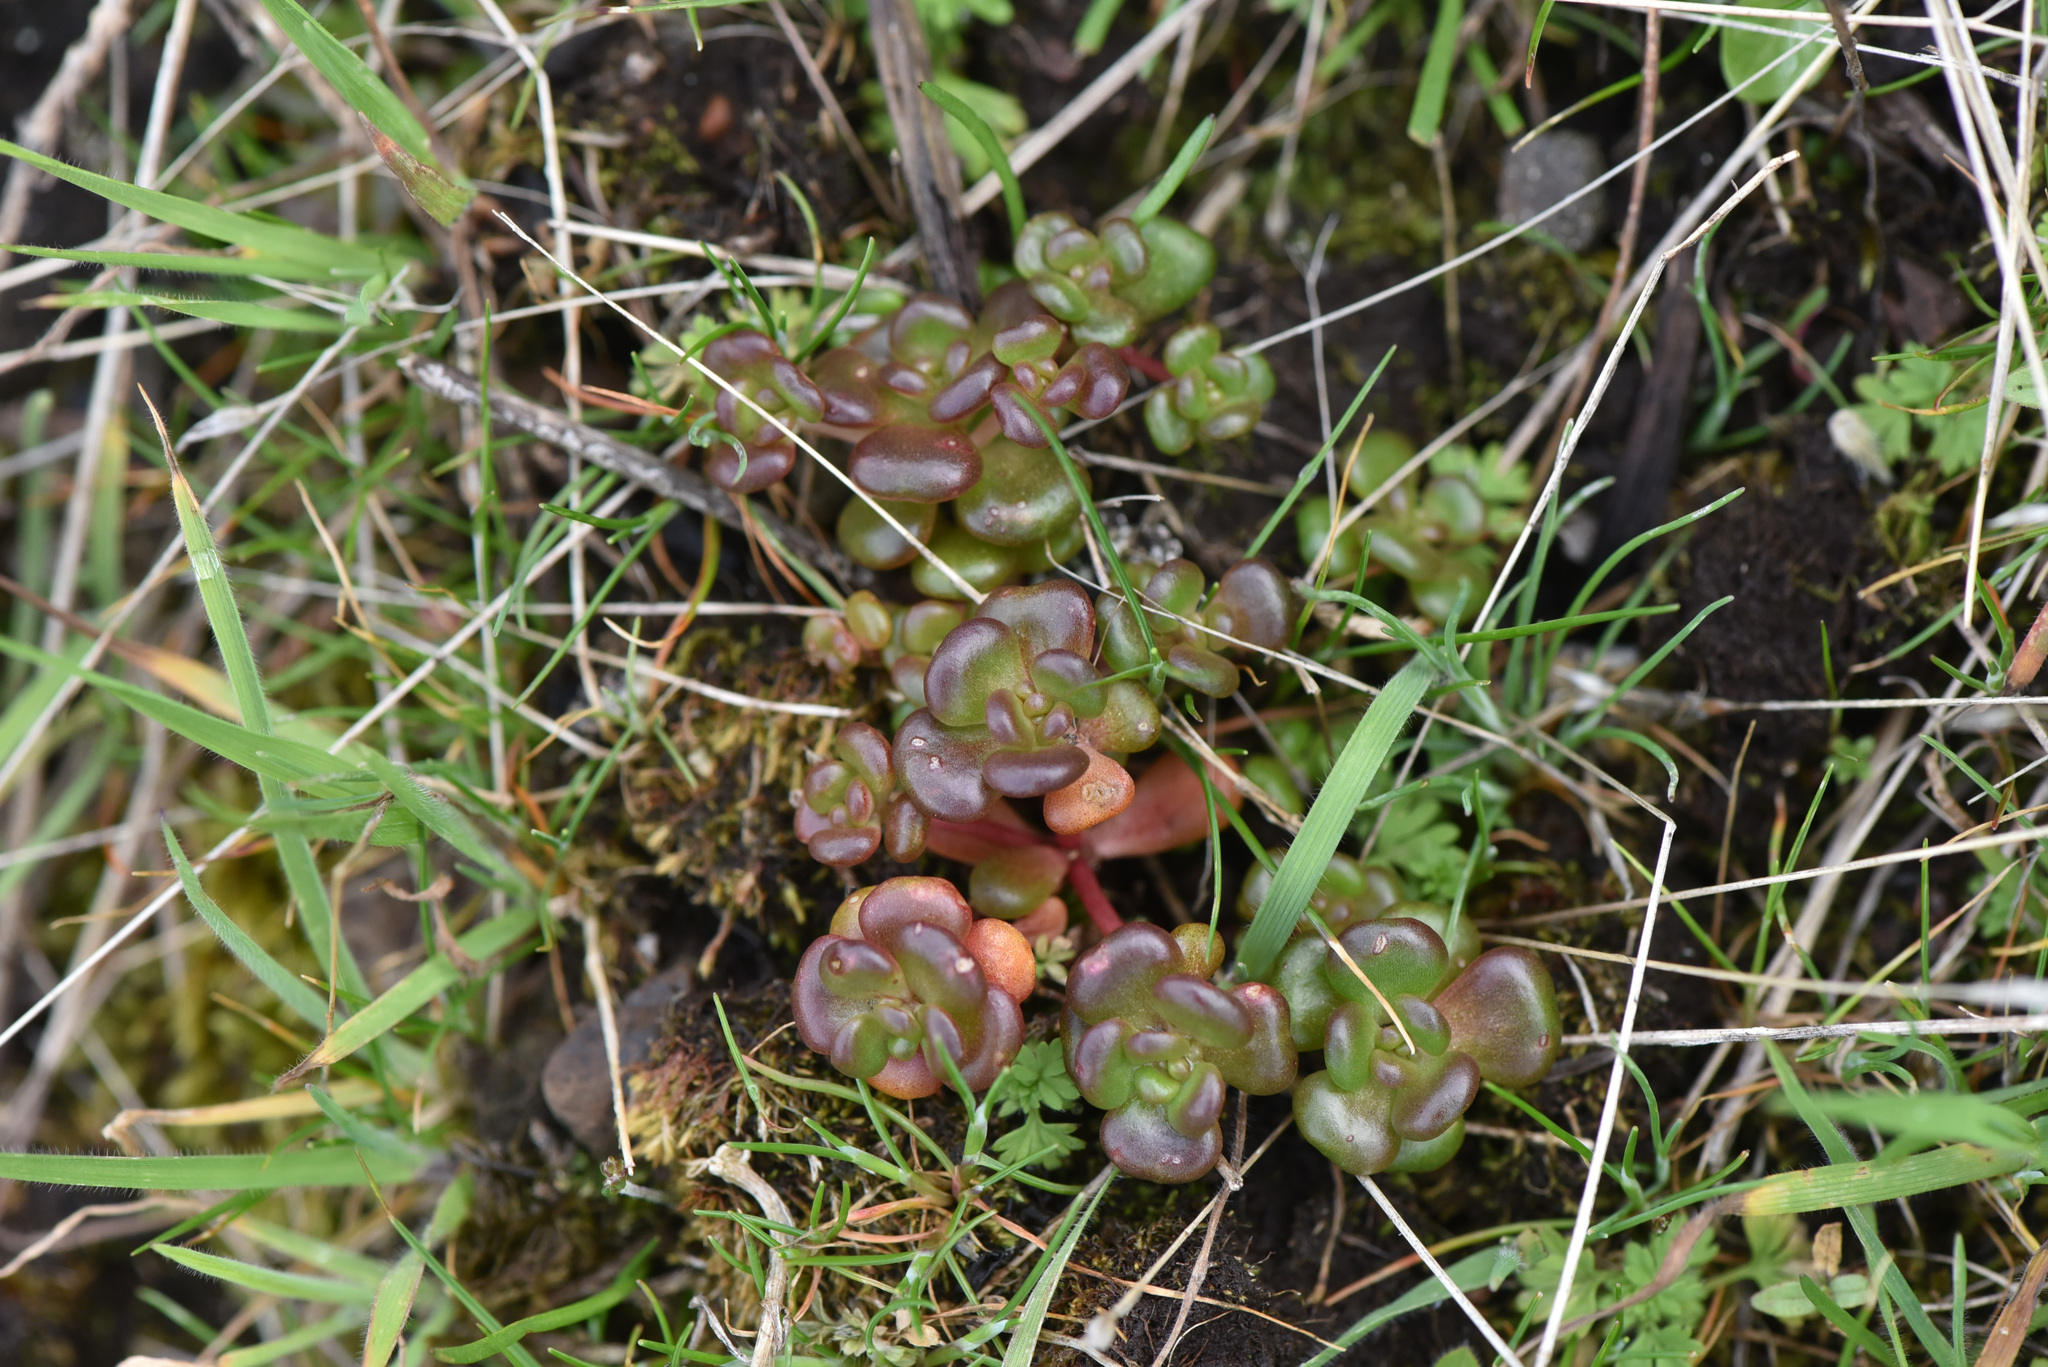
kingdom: Plantae
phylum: Tracheophyta
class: Magnoliopsida
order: Saxifragales
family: Crassulaceae
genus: Sedum
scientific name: Sedum oreganum
